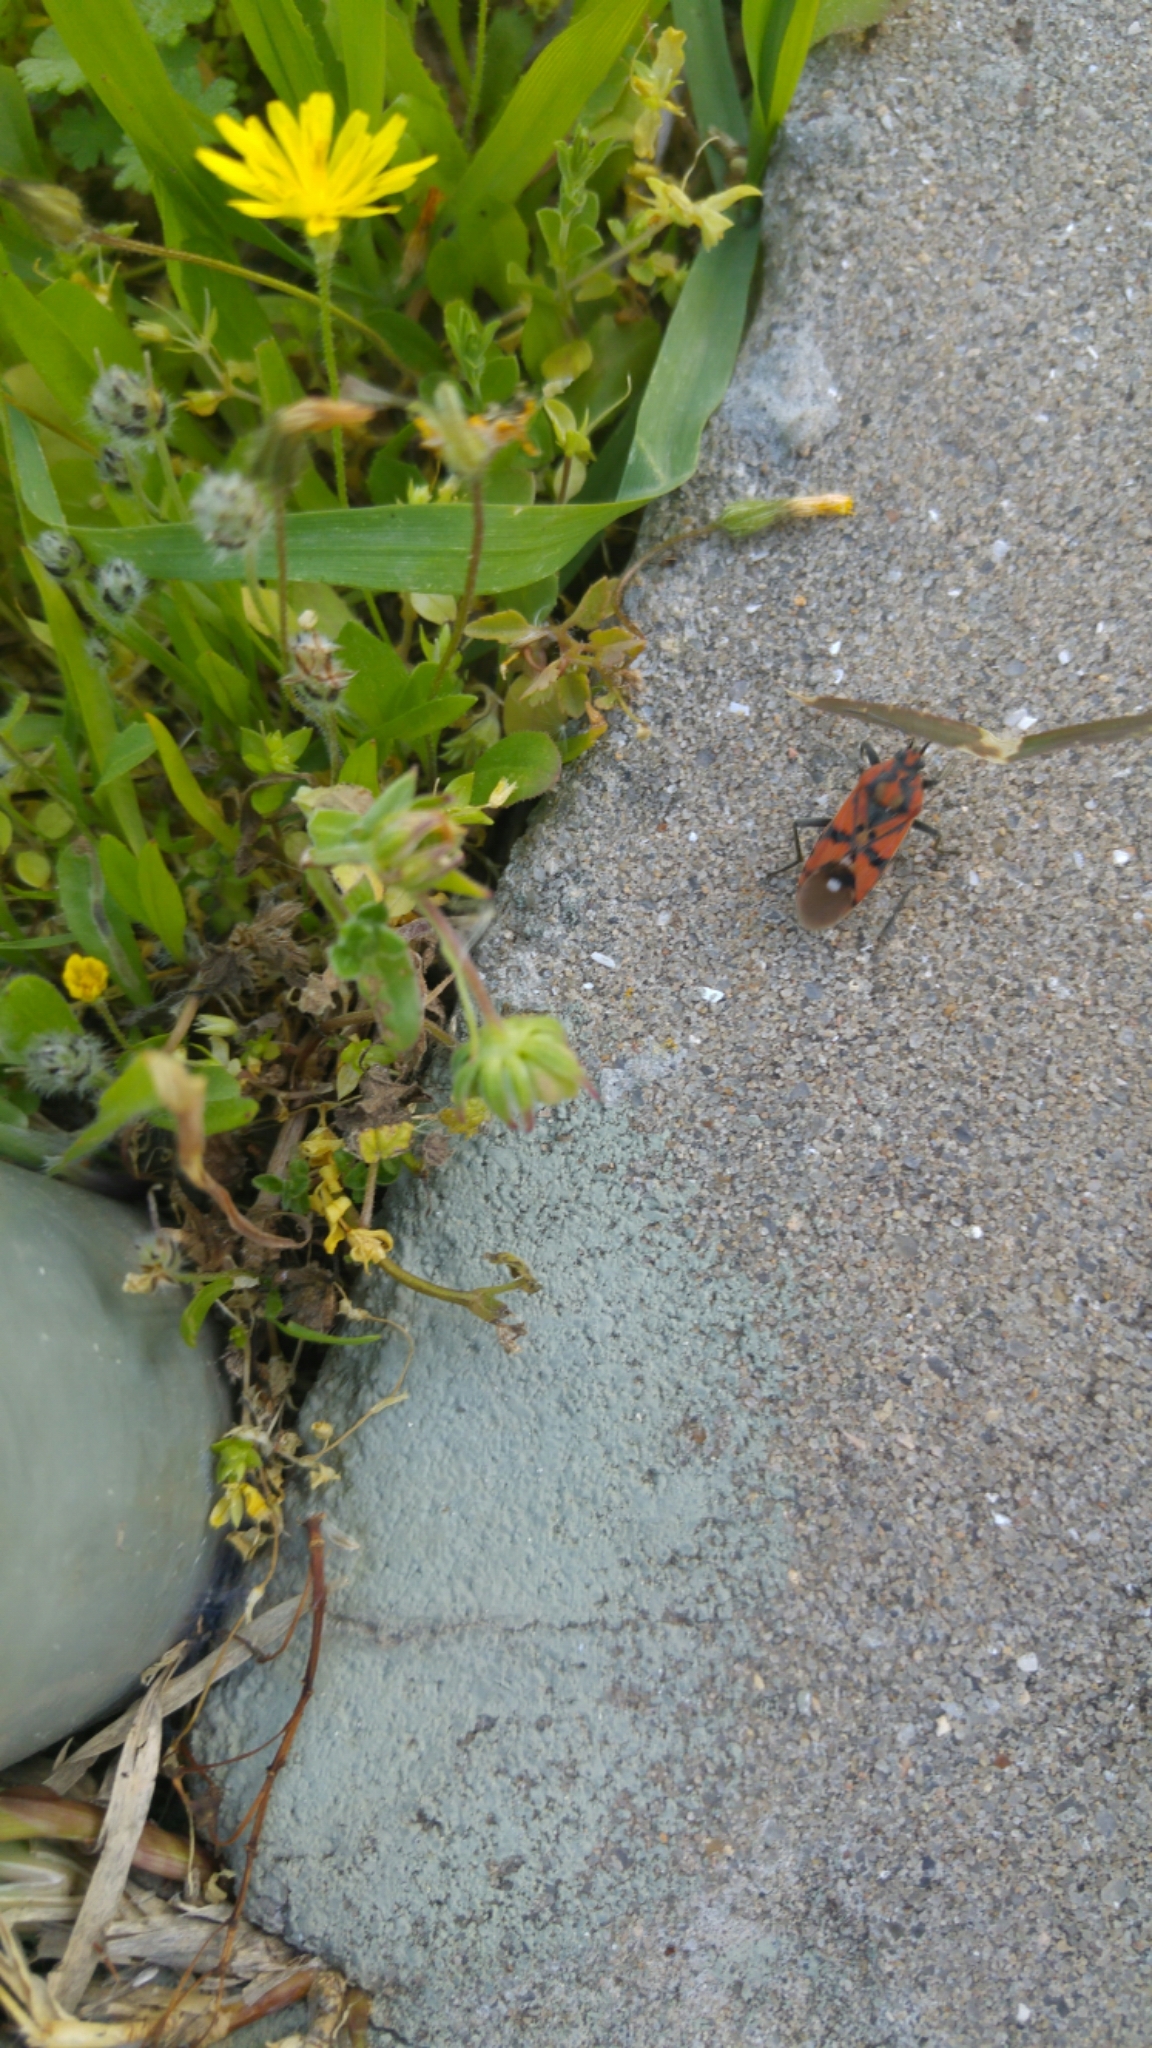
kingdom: Animalia
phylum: Arthropoda
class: Insecta
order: Hemiptera
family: Lygaeidae
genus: Spilostethus
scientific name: Spilostethus pandurus
